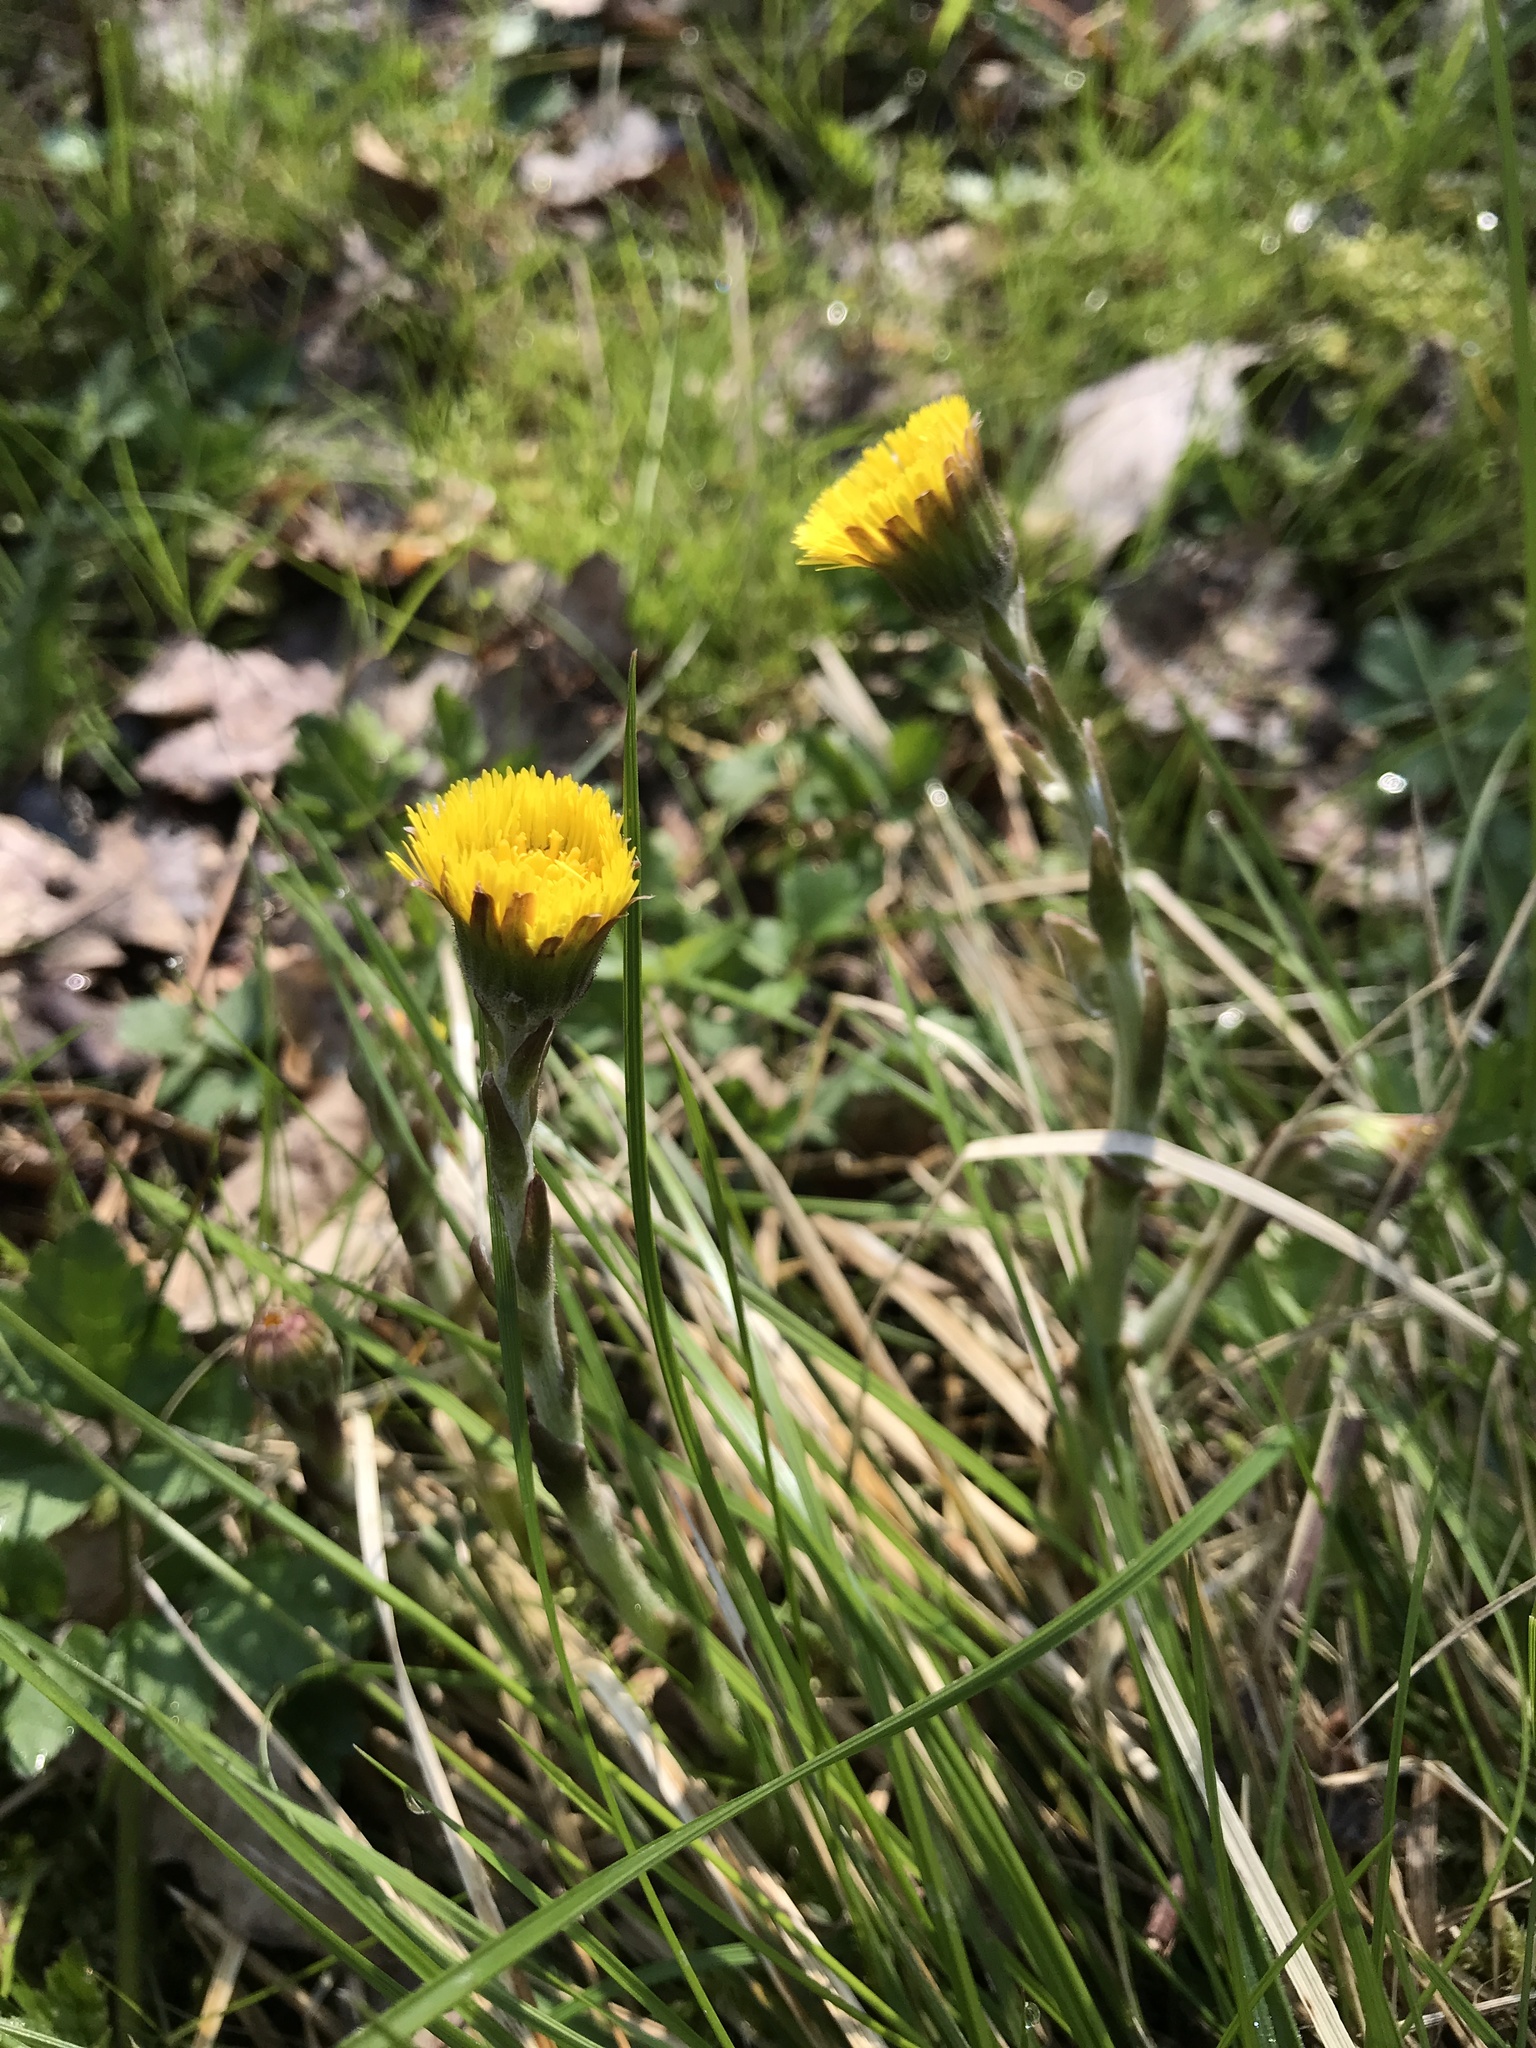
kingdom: Plantae
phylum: Tracheophyta
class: Magnoliopsida
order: Asterales
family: Asteraceae
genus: Tussilago
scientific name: Tussilago farfara
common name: Coltsfoot
